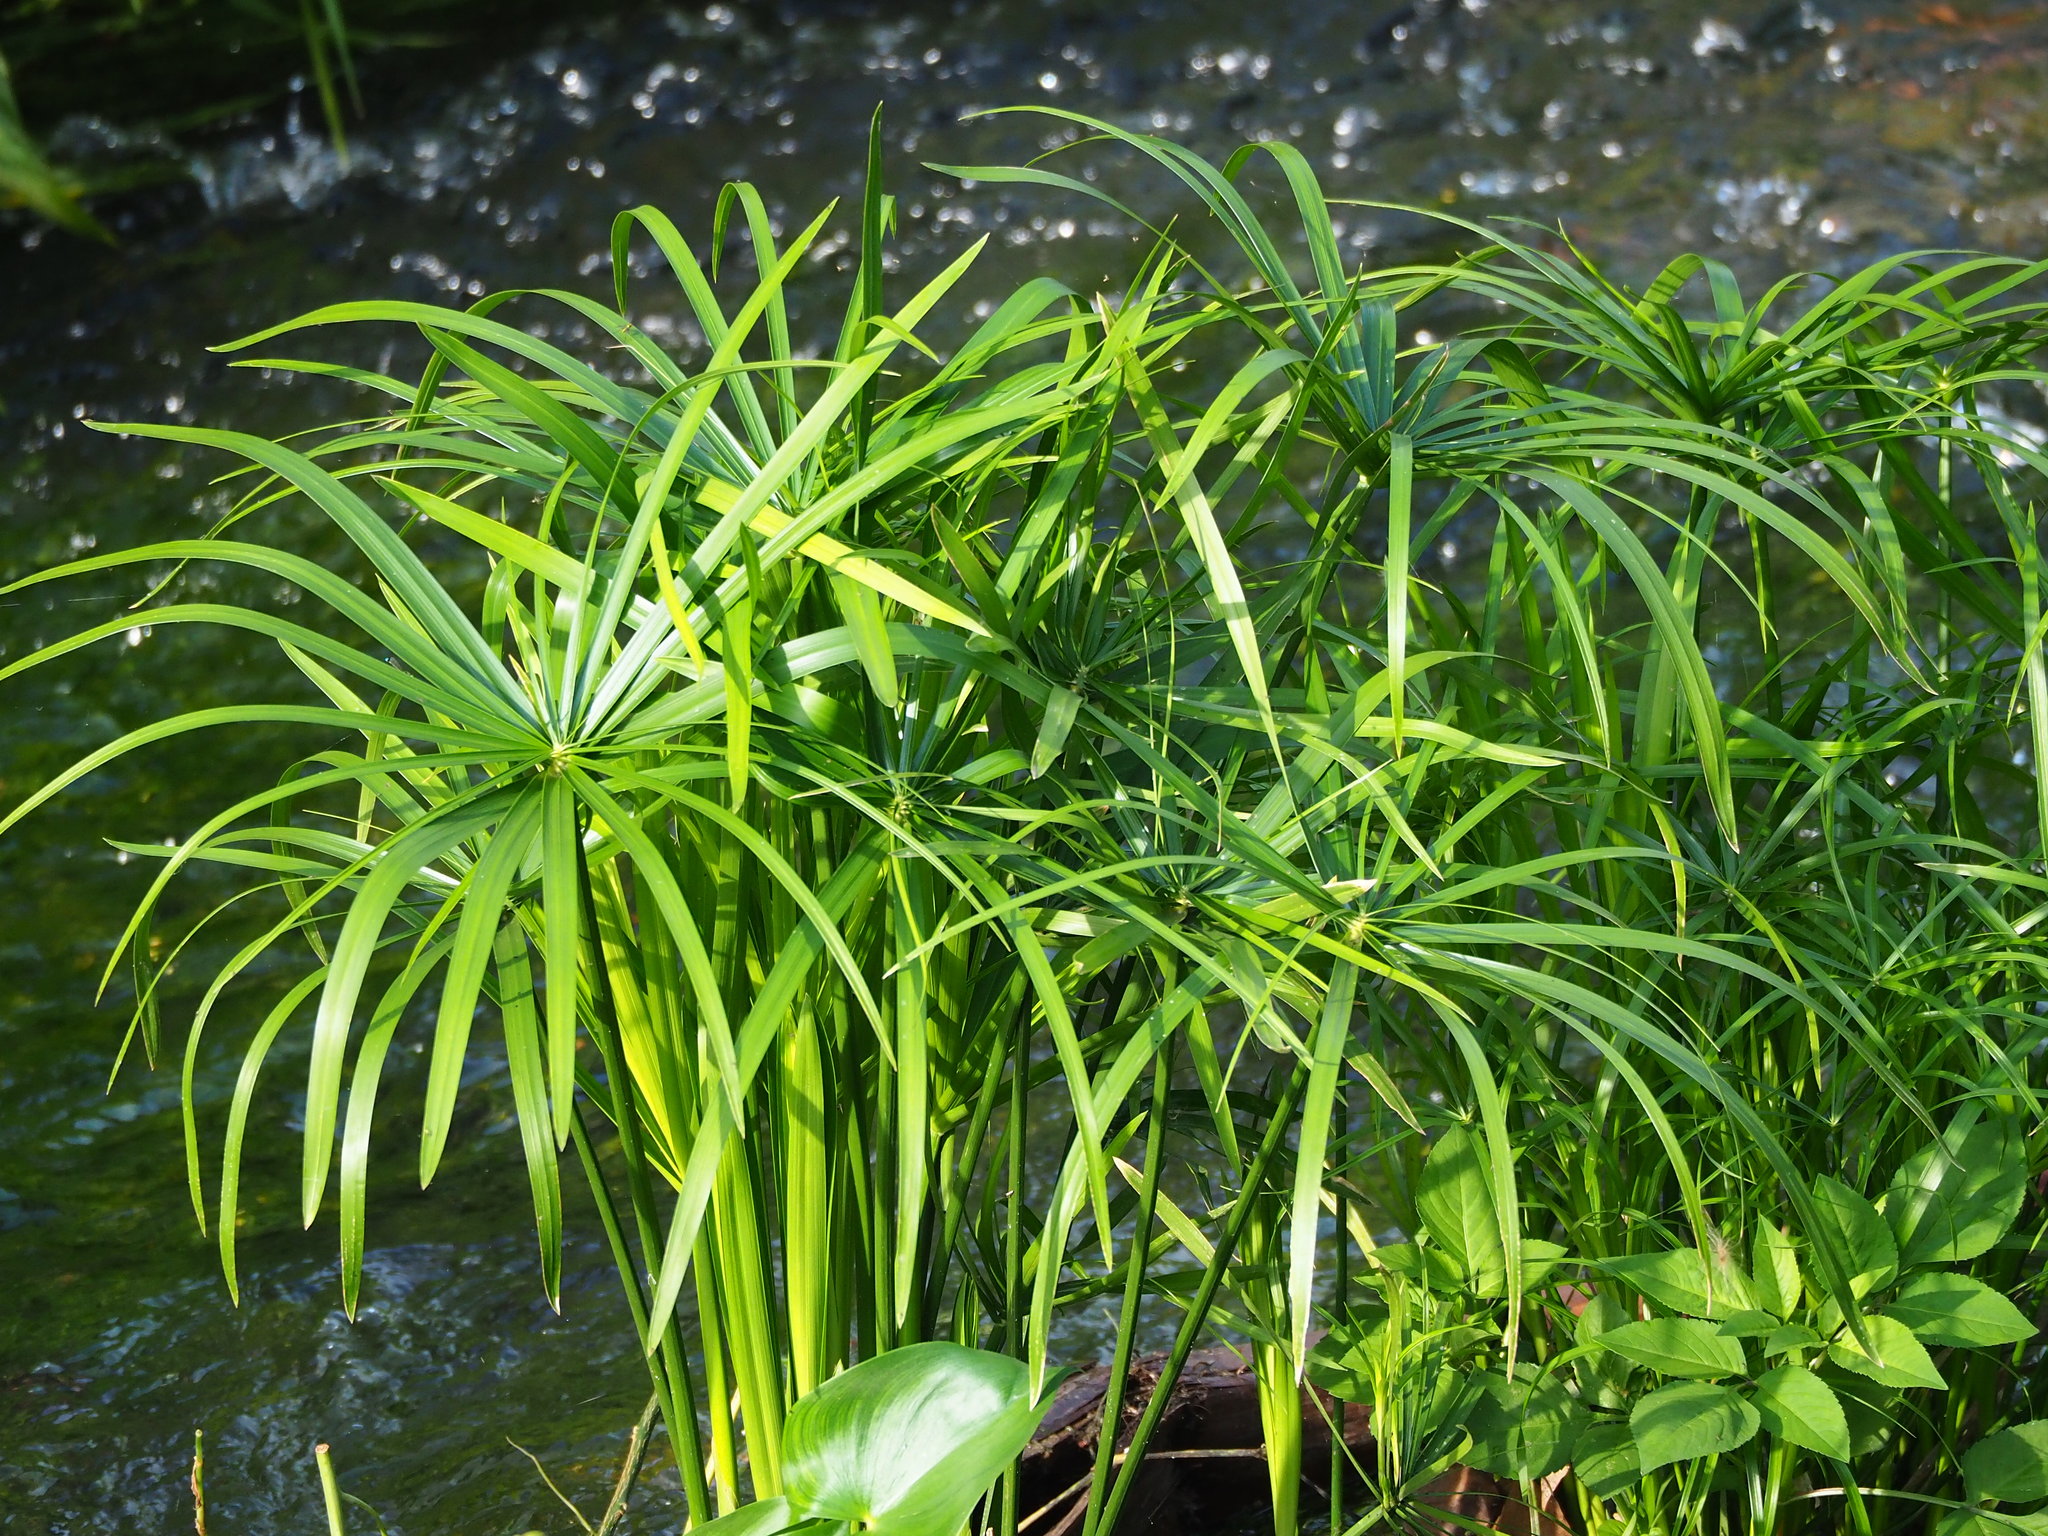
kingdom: Plantae
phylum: Tracheophyta
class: Liliopsida
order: Poales
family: Cyperaceae
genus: Cyperus
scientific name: Cyperus alternifolius
